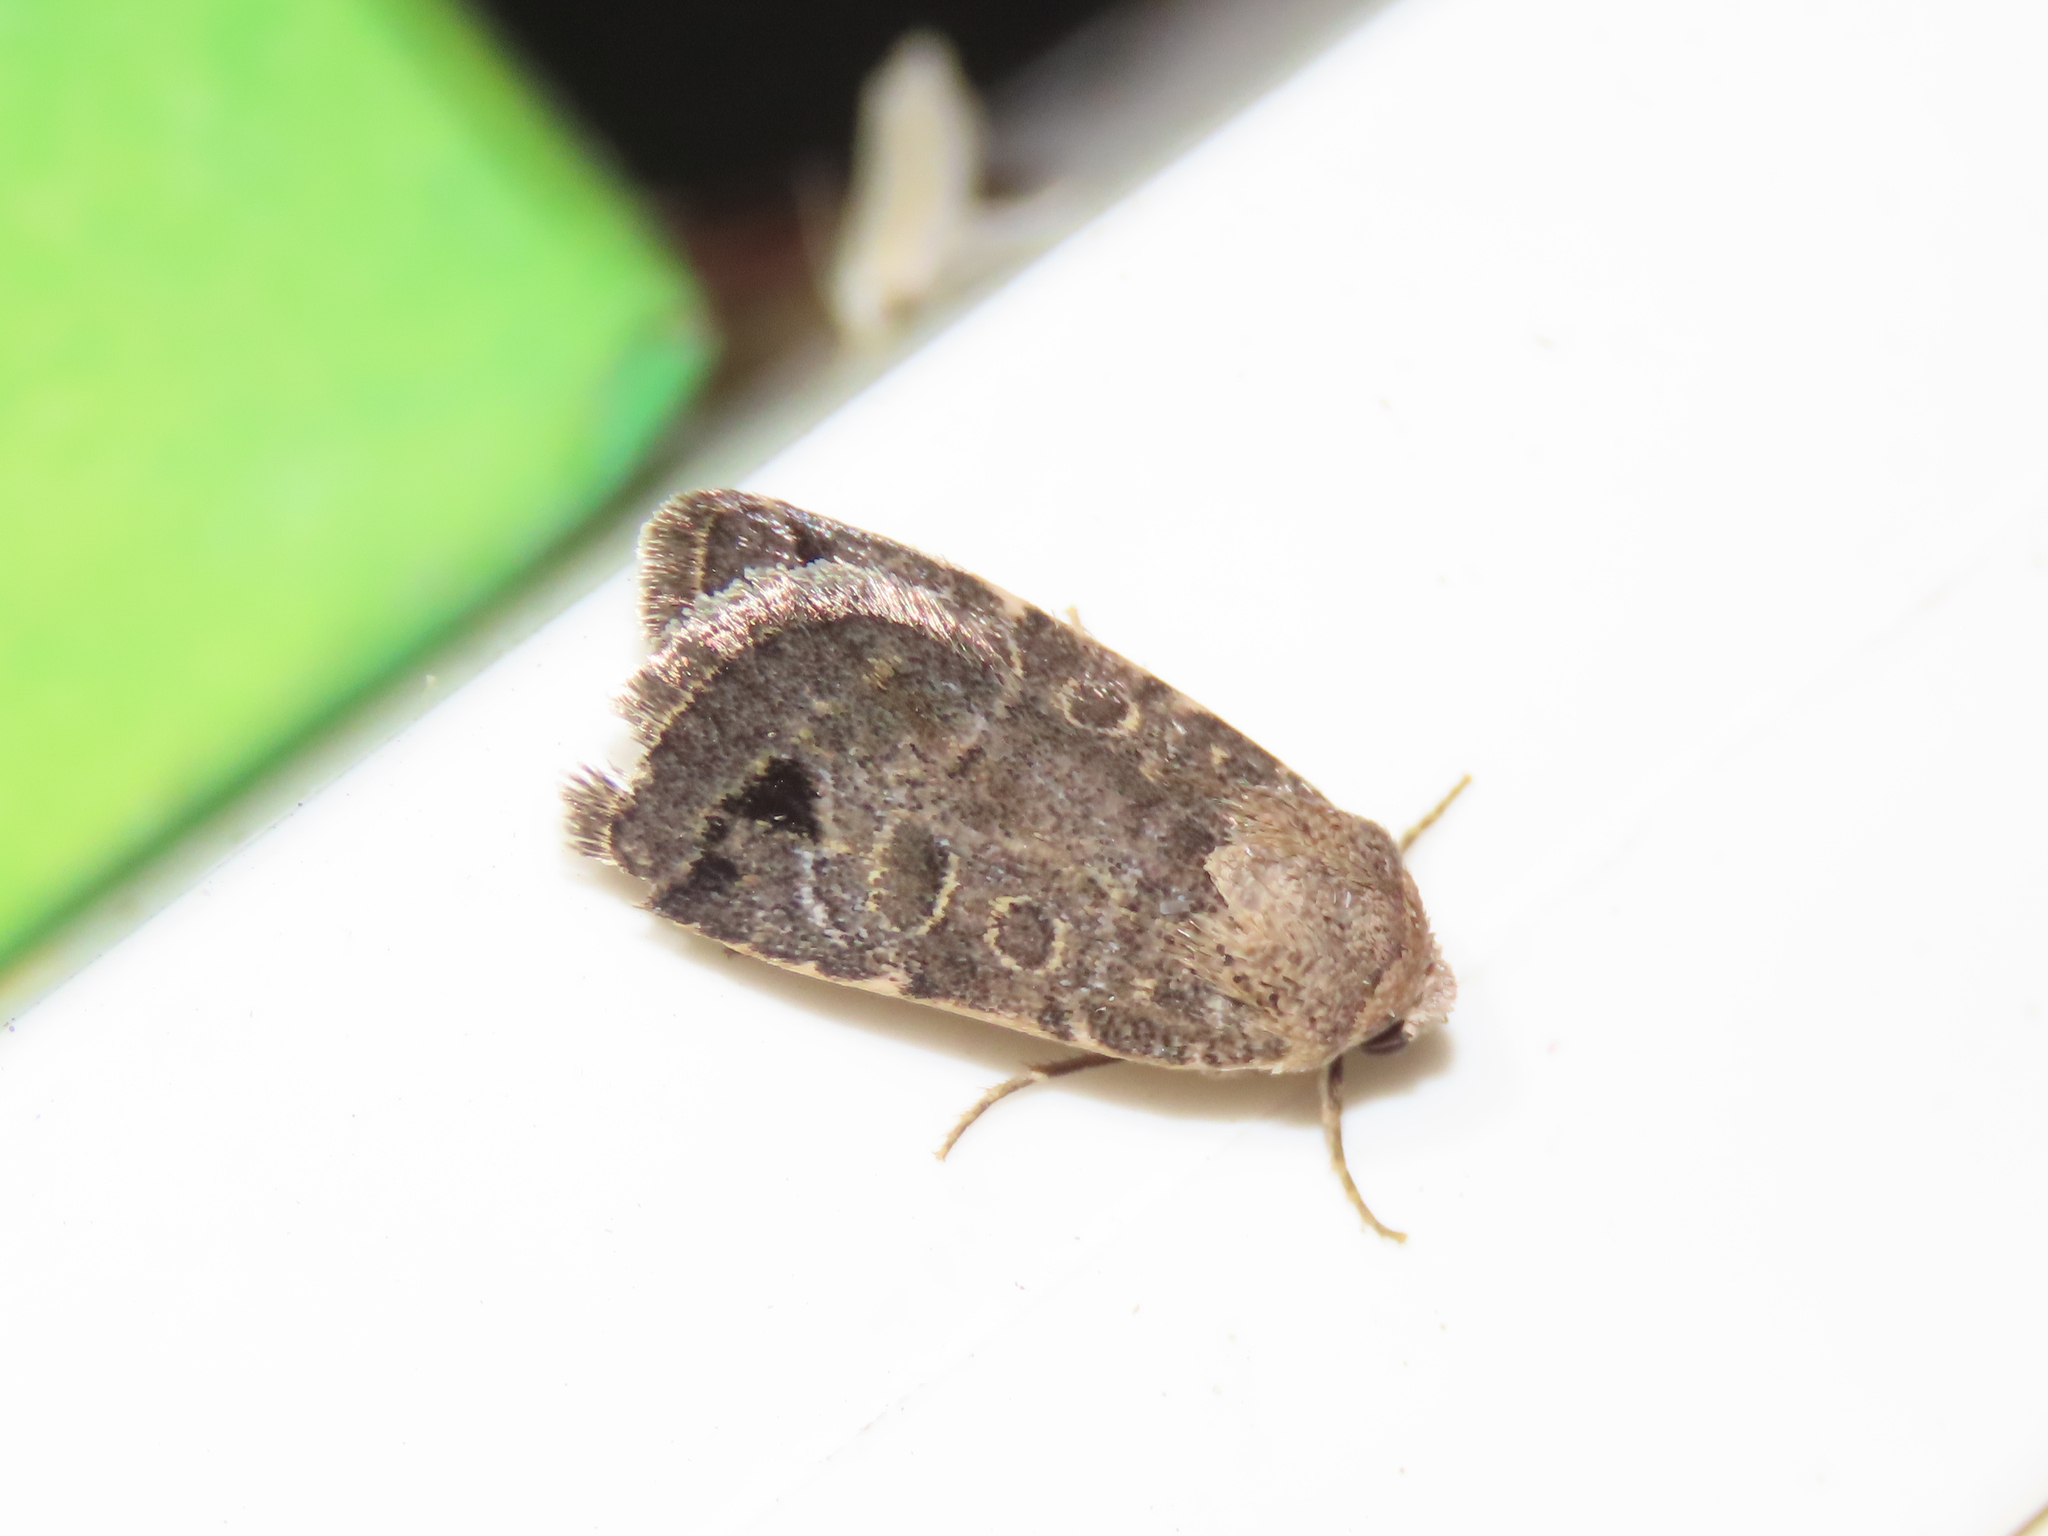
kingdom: Animalia
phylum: Arthropoda
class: Insecta
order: Lepidoptera
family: Noctuidae
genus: Anorthodes
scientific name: Anorthodes triquetra
